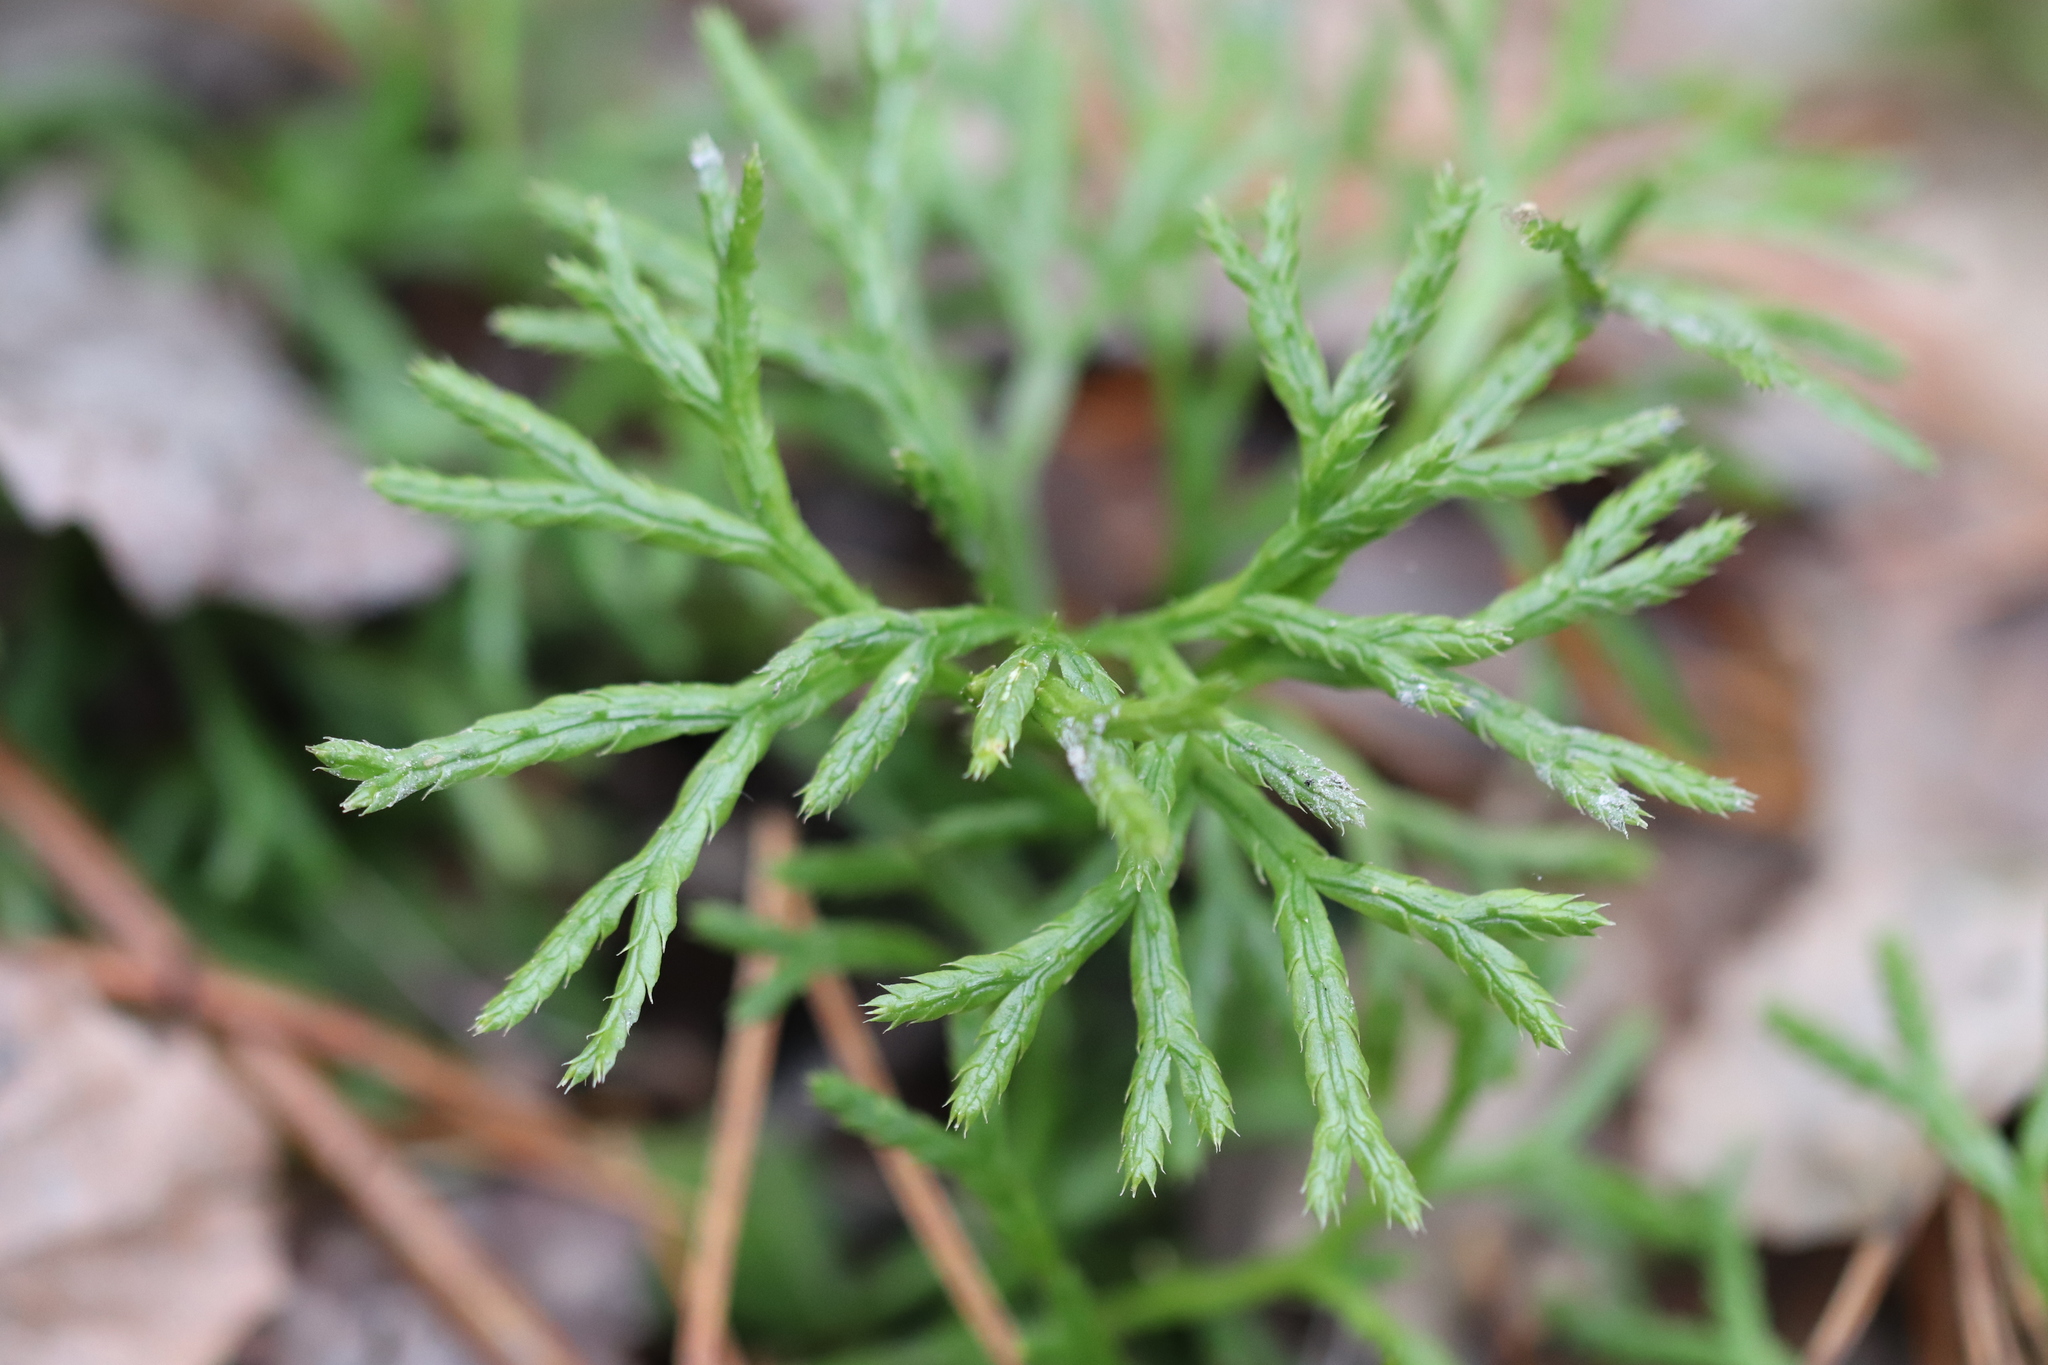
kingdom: Plantae
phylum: Tracheophyta
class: Lycopodiopsida
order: Lycopodiales
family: Lycopodiaceae
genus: Diphasiastrum
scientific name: Diphasiastrum complanatum
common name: Northern running-pine
